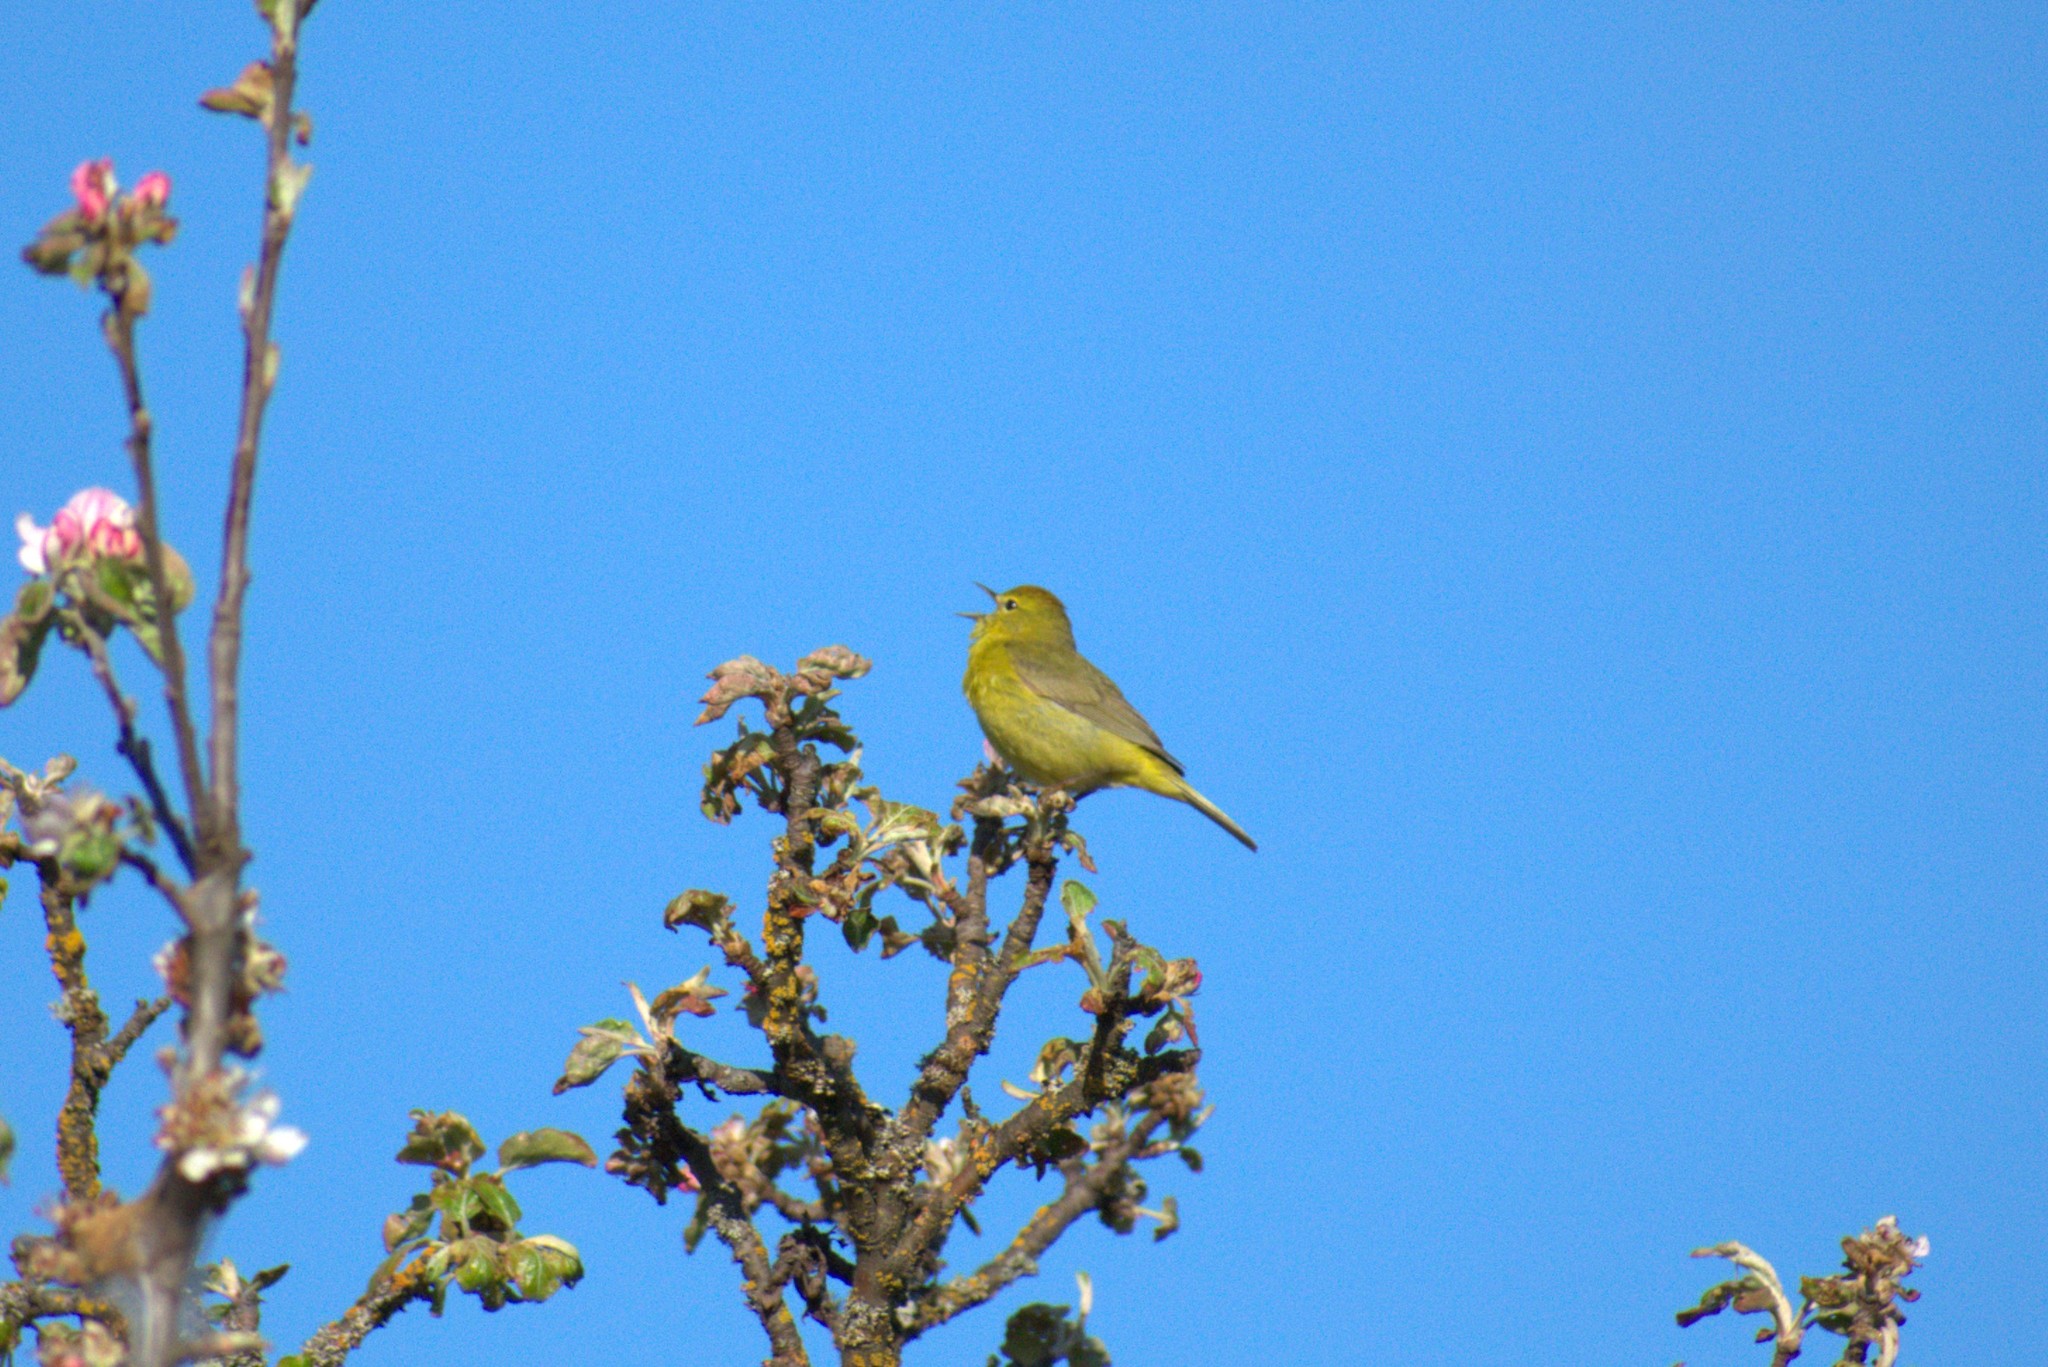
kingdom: Animalia
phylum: Chordata
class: Aves
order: Passeriformes
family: Parulidae
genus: Leiothlypis
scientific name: Leiothlypis celata
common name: Orange-crowned warbler
